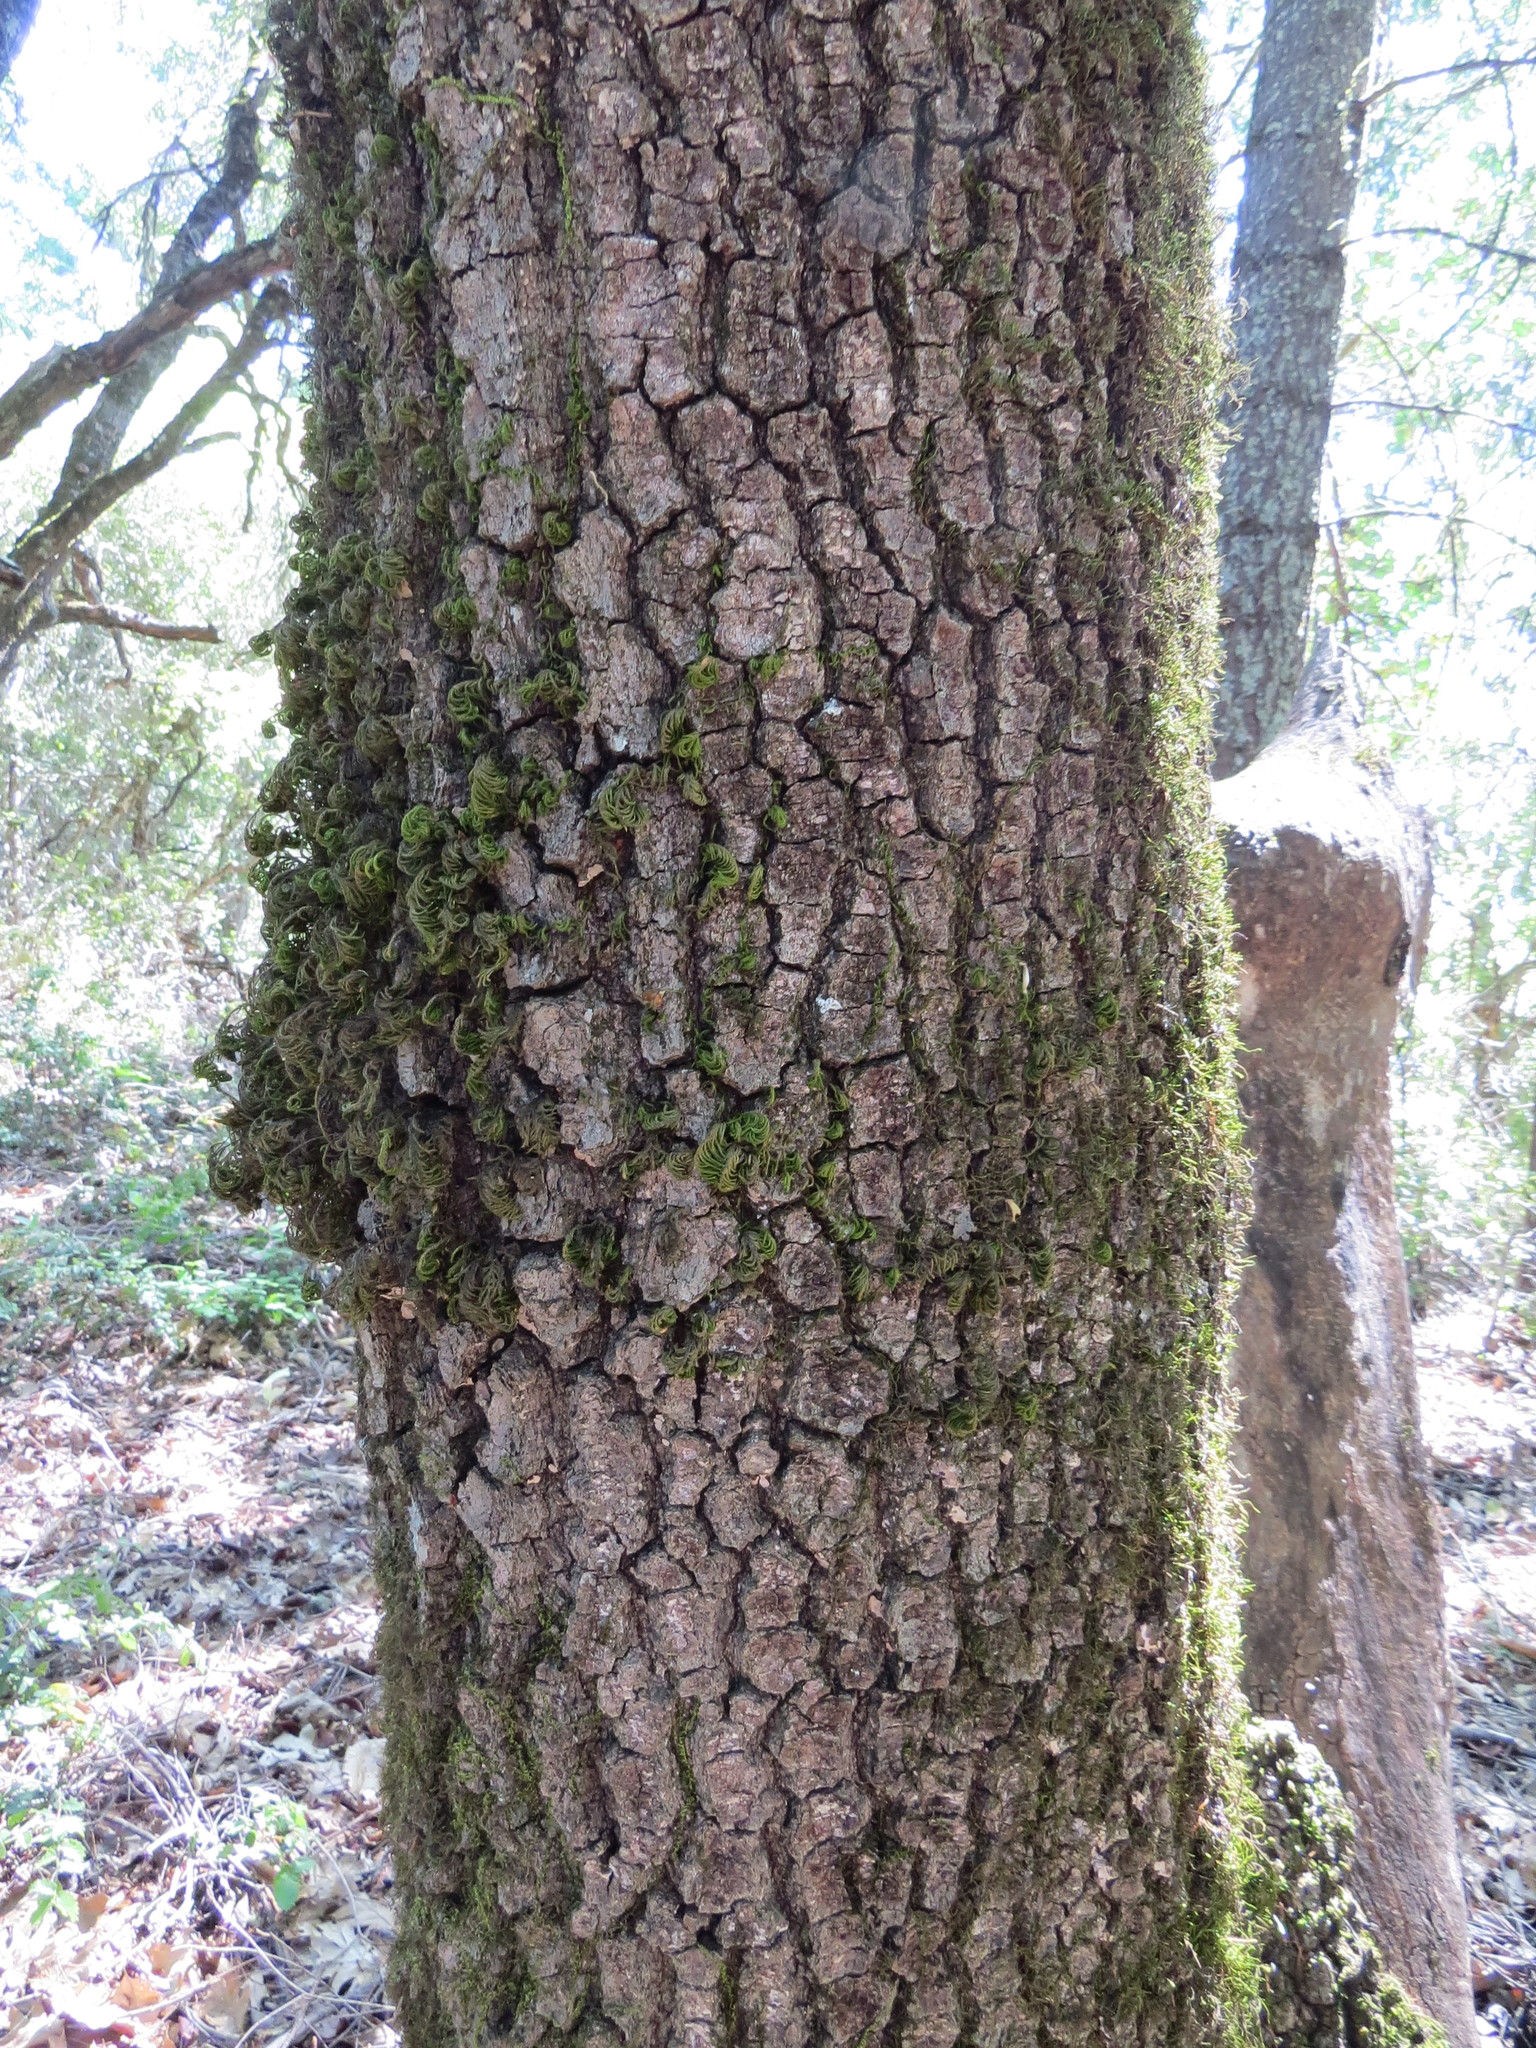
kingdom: Plantae
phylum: Tracheophyta
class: Magnoliopsida
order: Fagales
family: Fagaceae
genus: Quercus
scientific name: Quercus kelloggii
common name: California black oak
